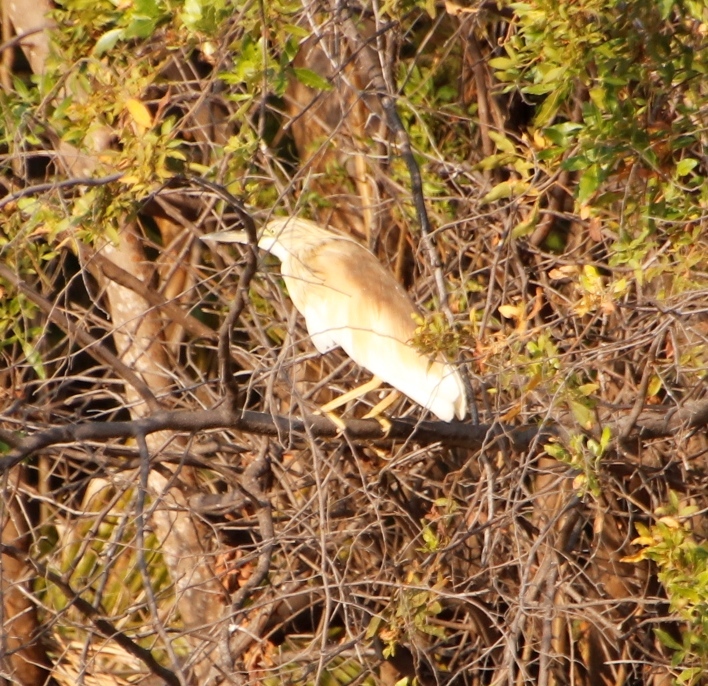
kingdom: Animalia
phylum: Chordata
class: Aves
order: Pelecaniformes
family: Ardeidae
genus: Ardeola
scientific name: Ardeola ralloides
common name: Squacco heron
